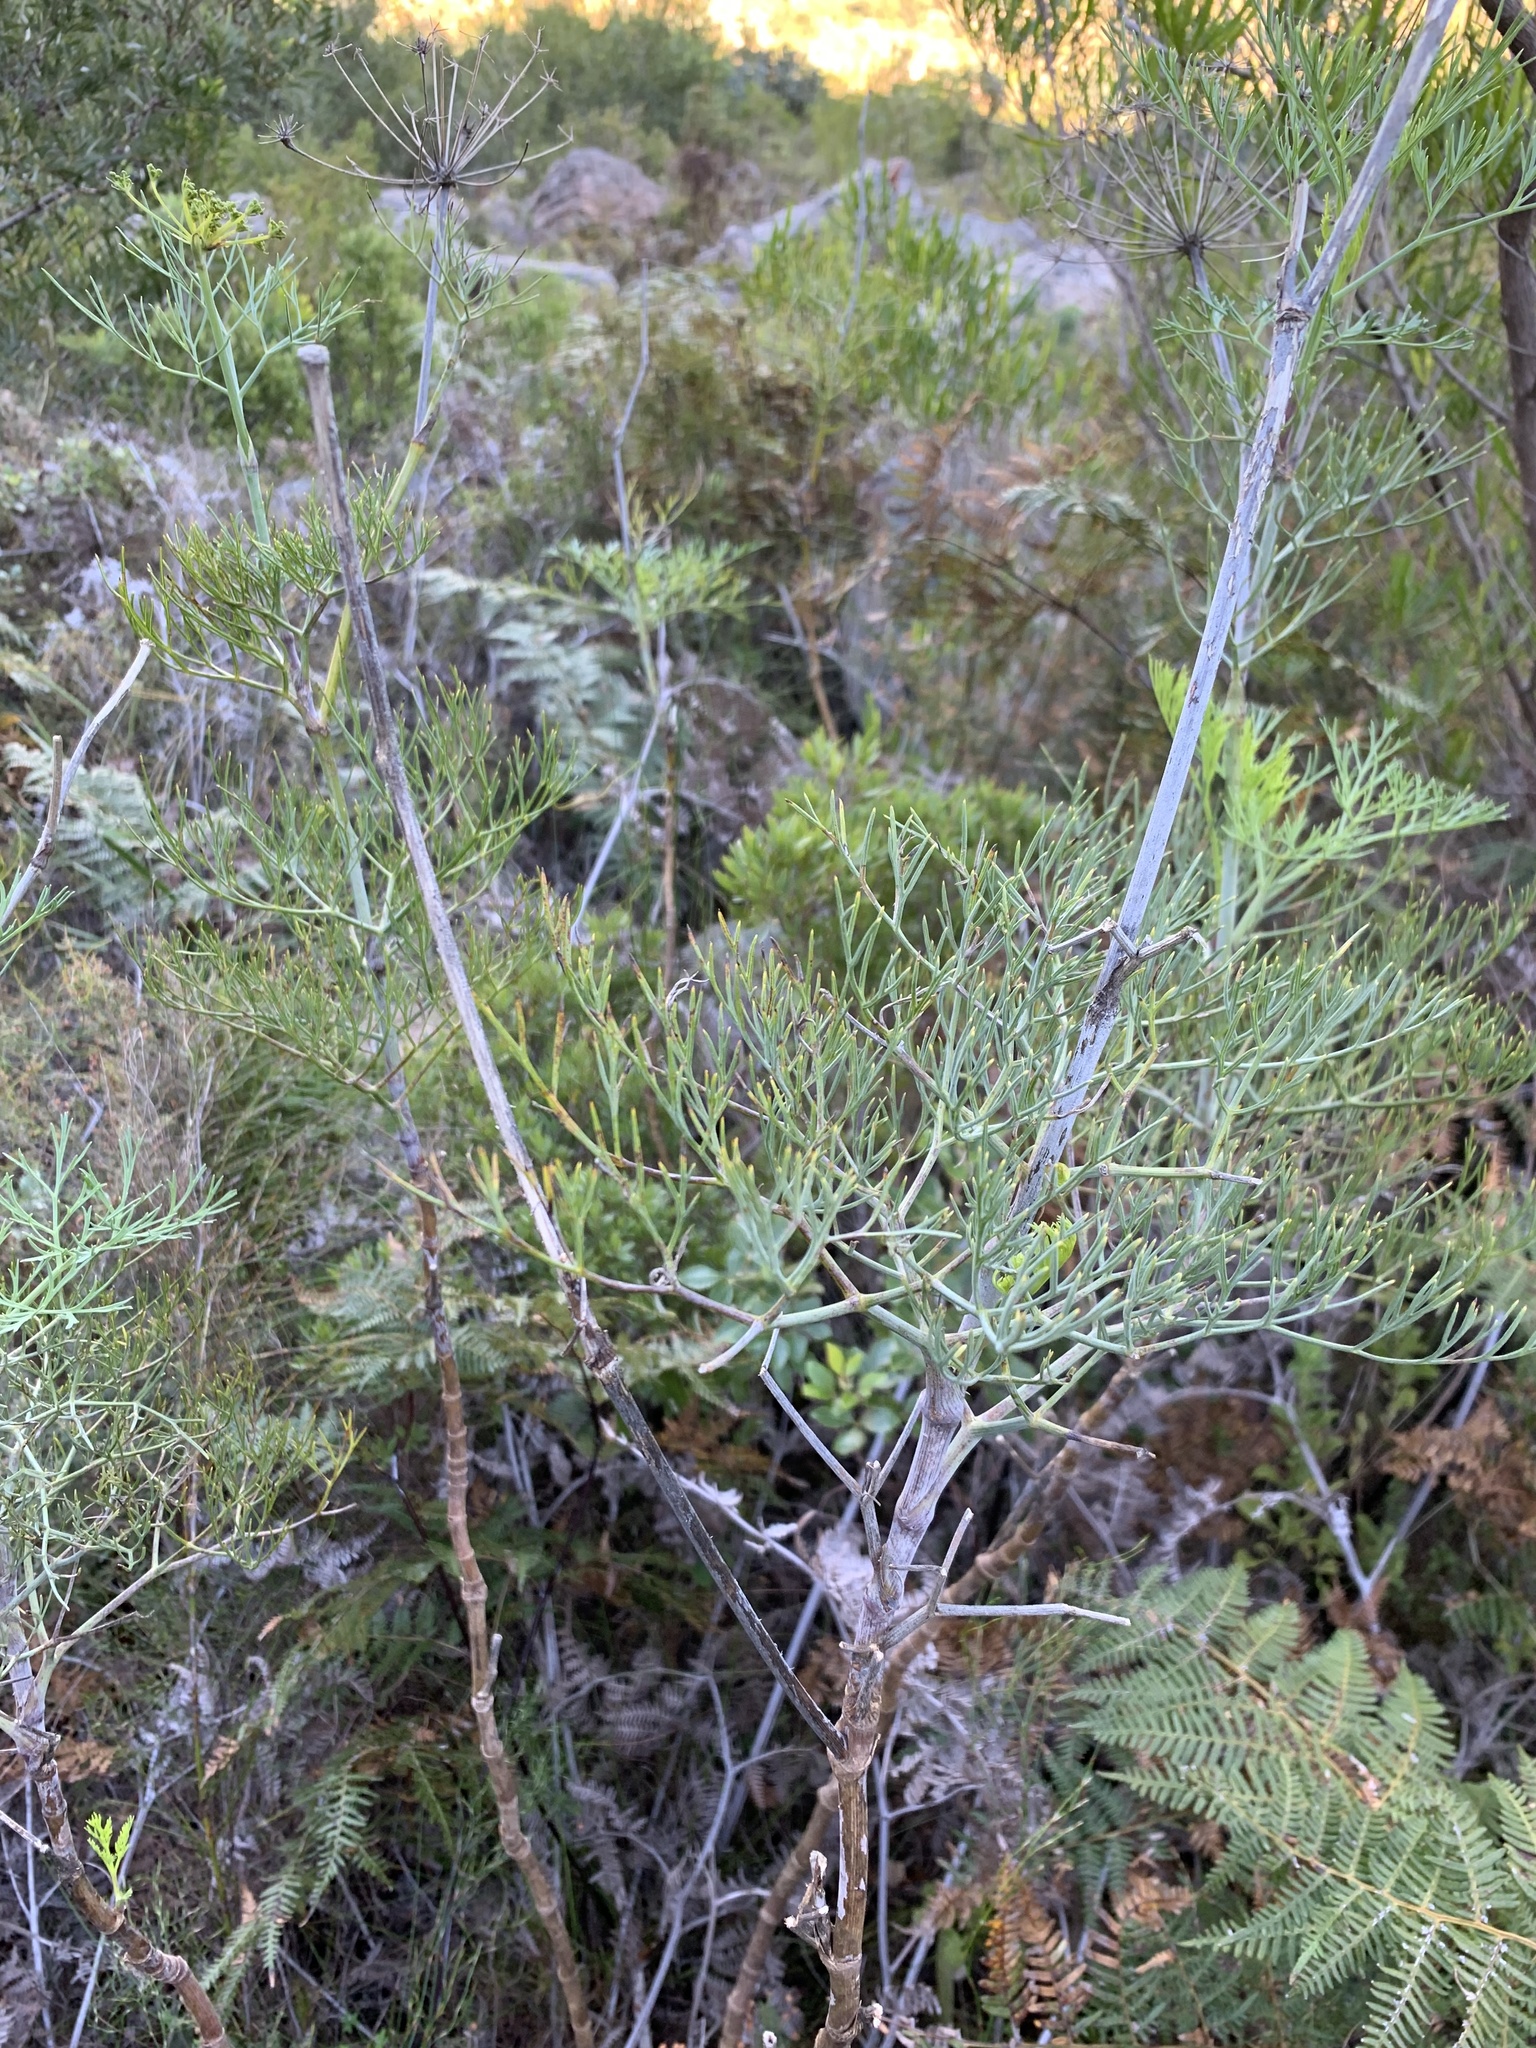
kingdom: Plantae
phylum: Tracheophyta
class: Magnoliopsida
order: Apiales
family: Apiaceae
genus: Notobubon
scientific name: Notobubon capense
